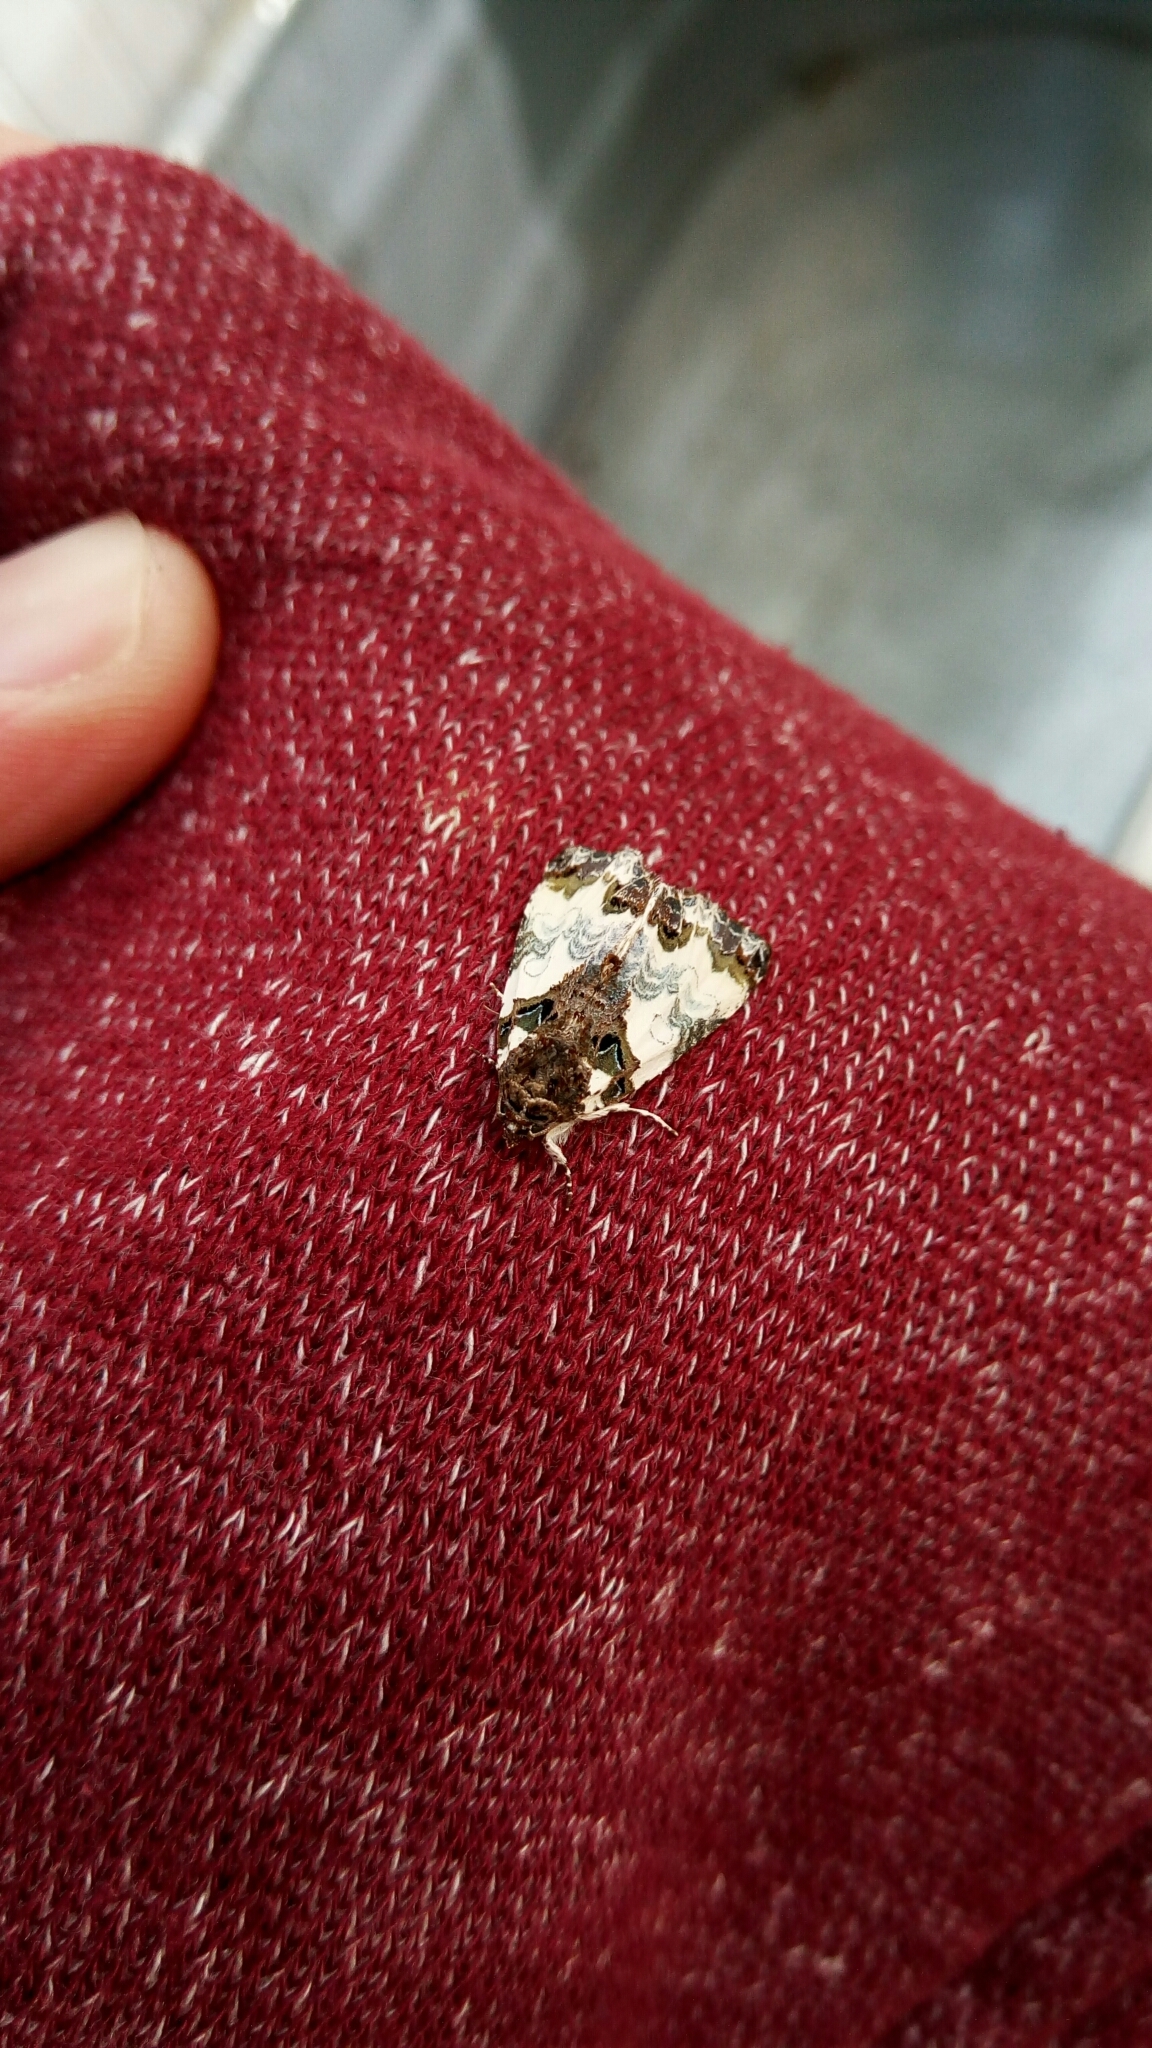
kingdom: Animalia
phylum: Arthropoda
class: Insecta
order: Lepidoptera
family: Noctuidae
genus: Cerma
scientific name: Cerma cerintha
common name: Tufted bird-dropping moth
